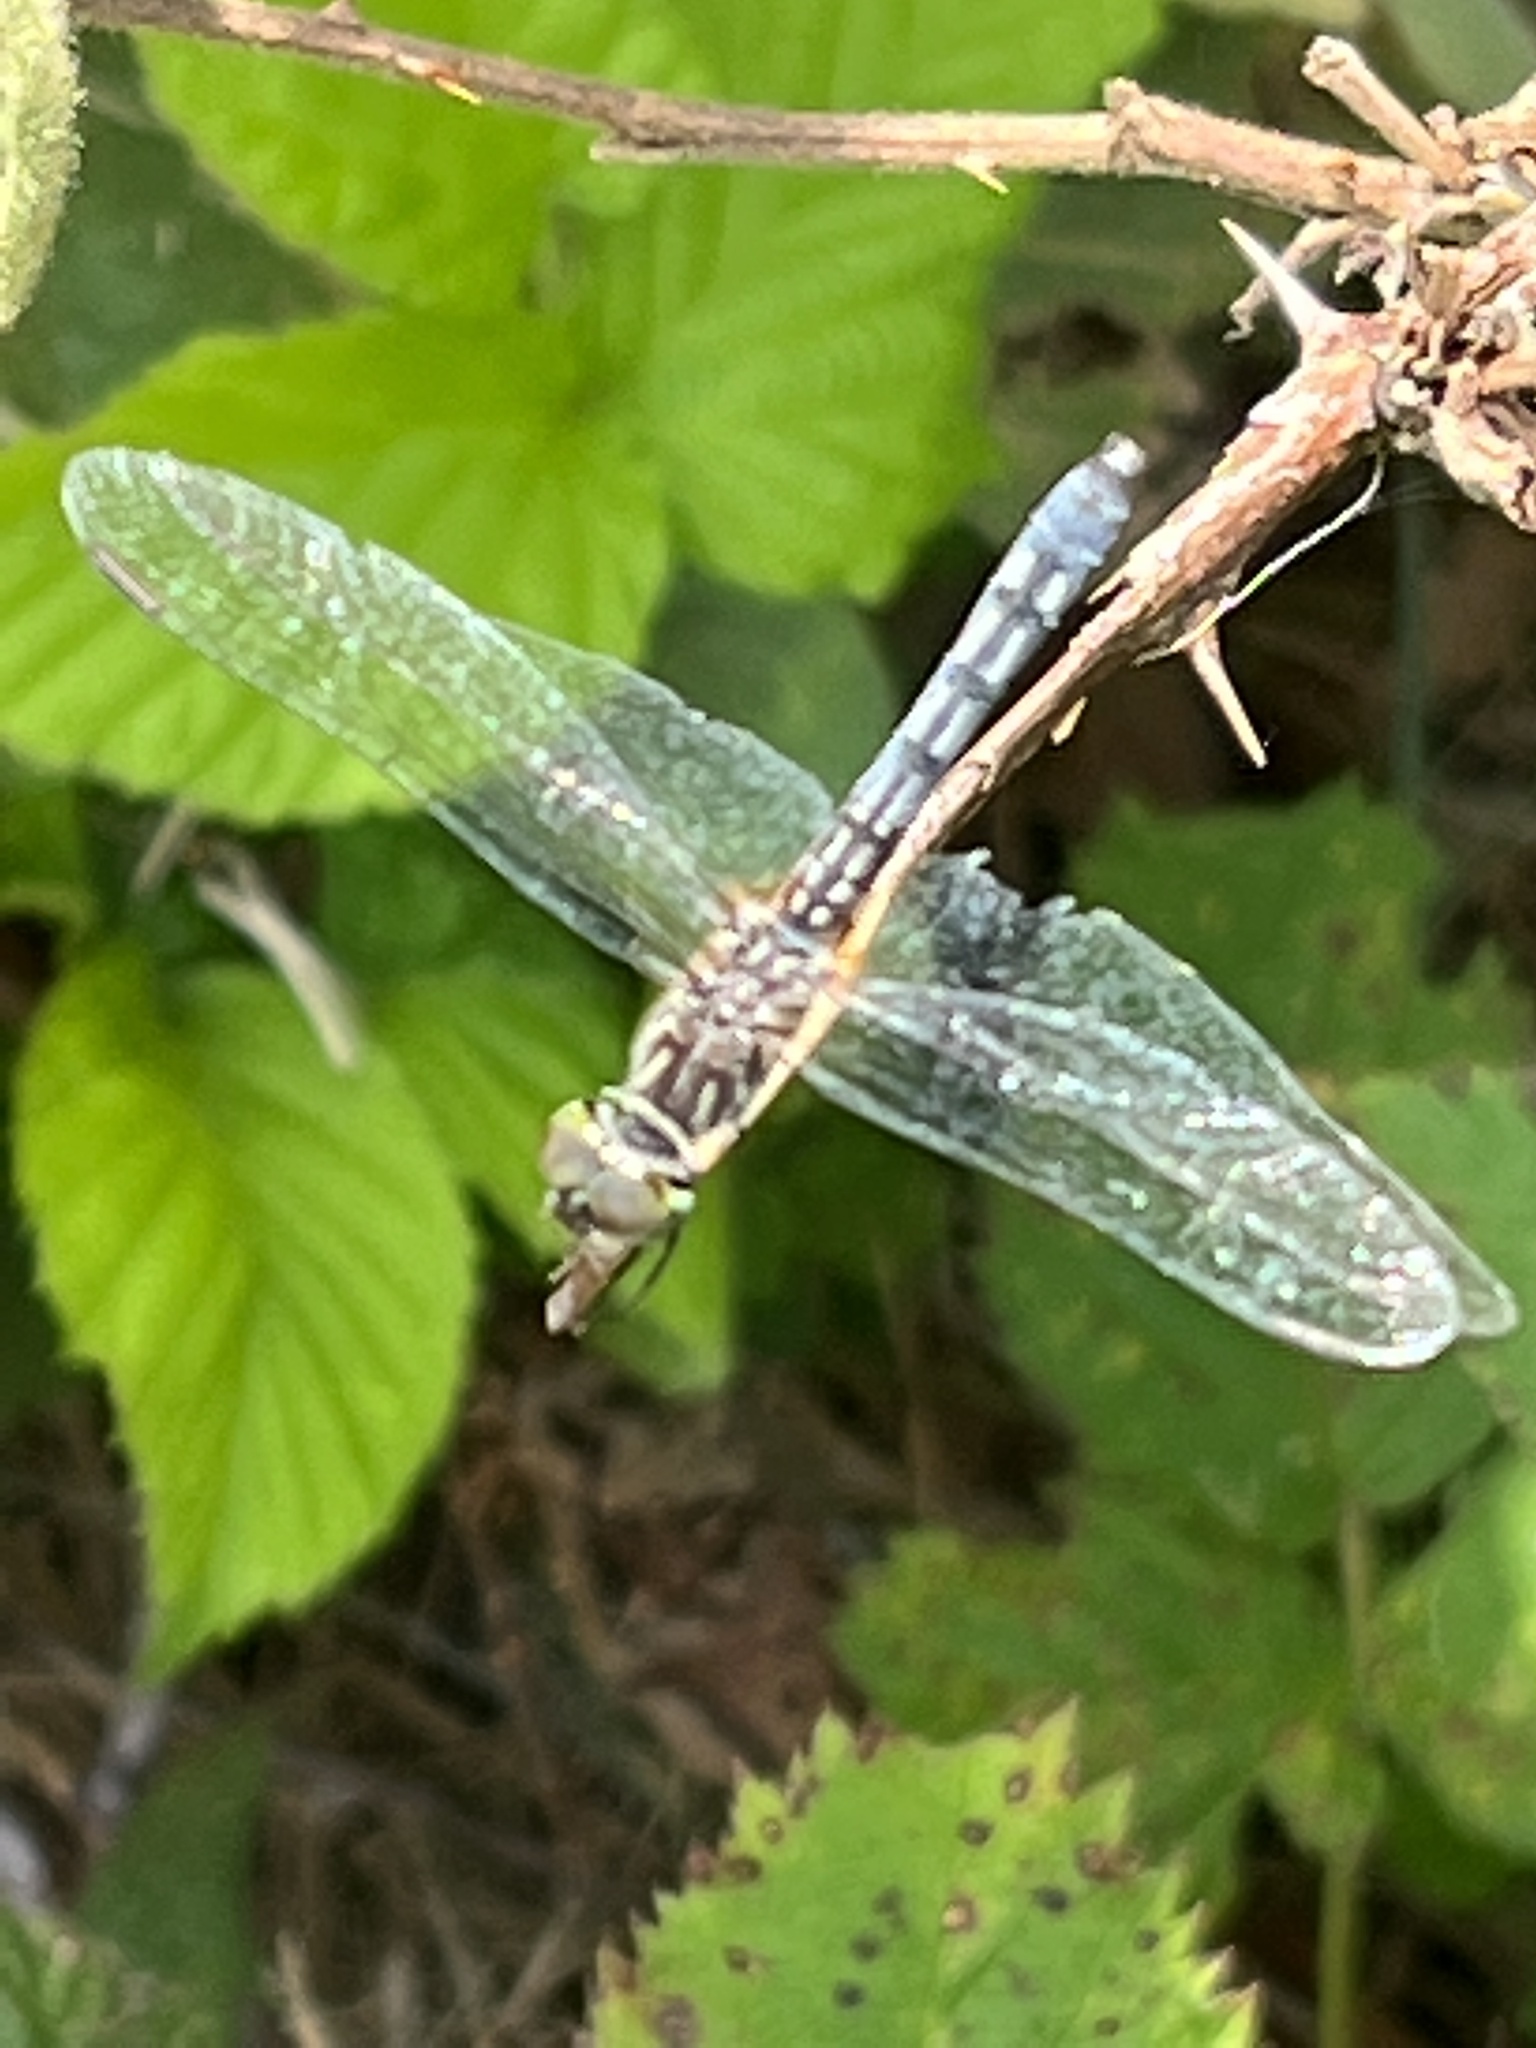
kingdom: Animalia
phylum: Arthropoda
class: Insecta
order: Odonata
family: Libellulidae
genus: Pachydiplax
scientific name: Pachydiplax longipennis
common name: Blue dasher
